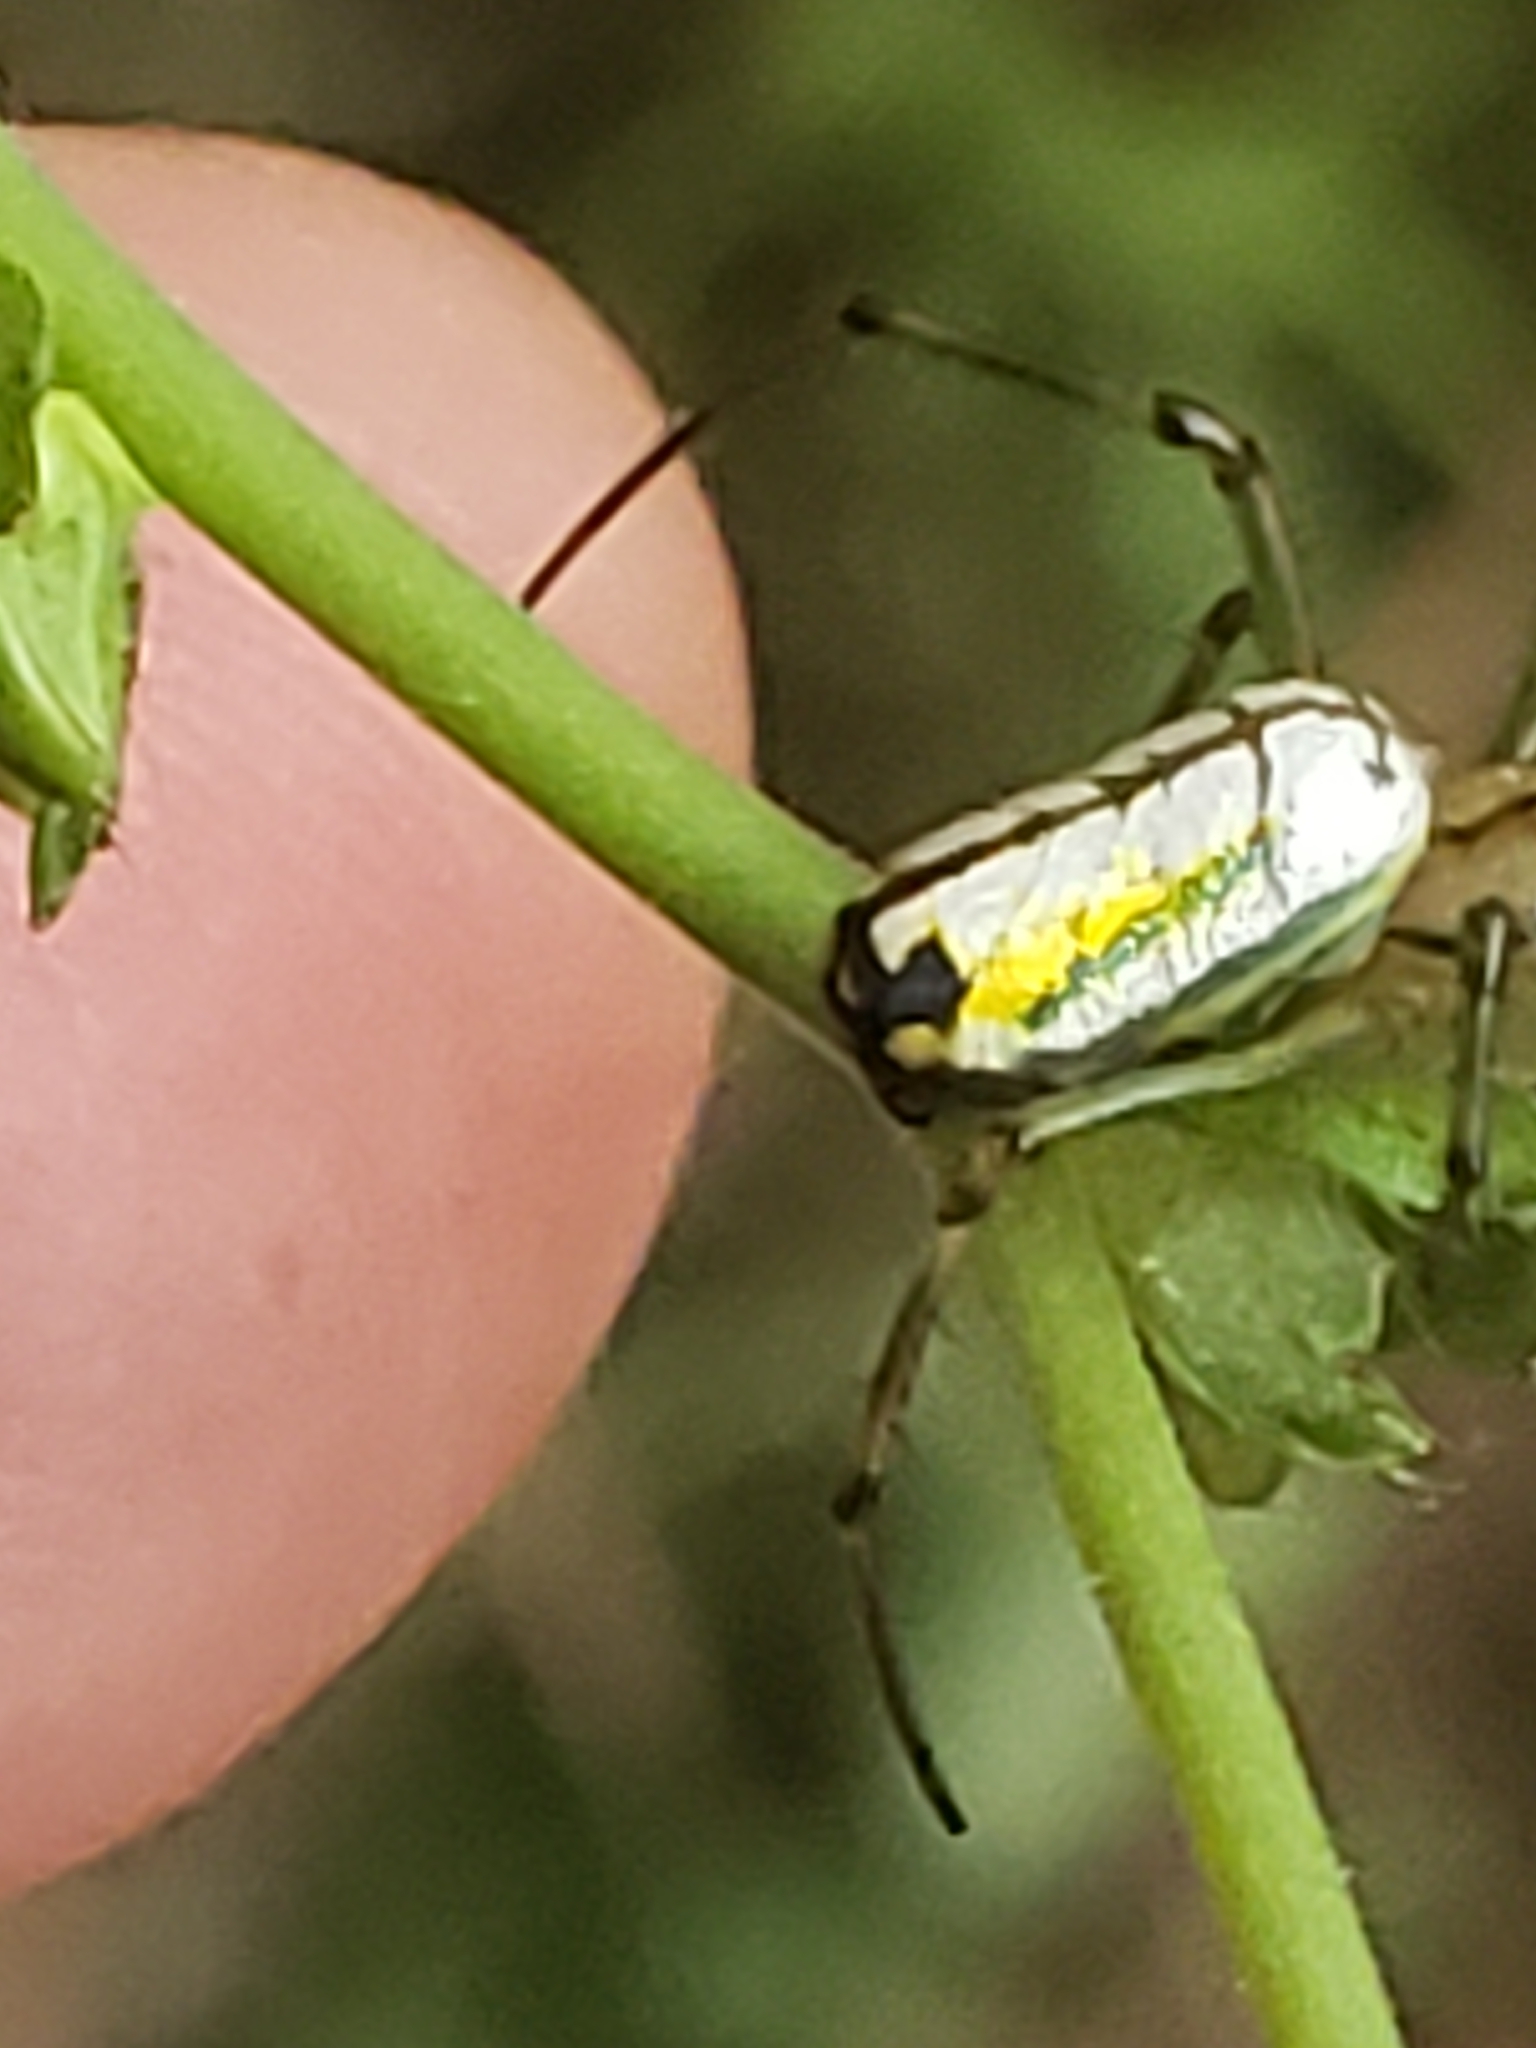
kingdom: Animalia
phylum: Arthropoda
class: Arachnida
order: Araneae
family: Tetragnathidae
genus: Leucauge
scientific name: Leucauge venusta
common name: Longjawed orb weavers
